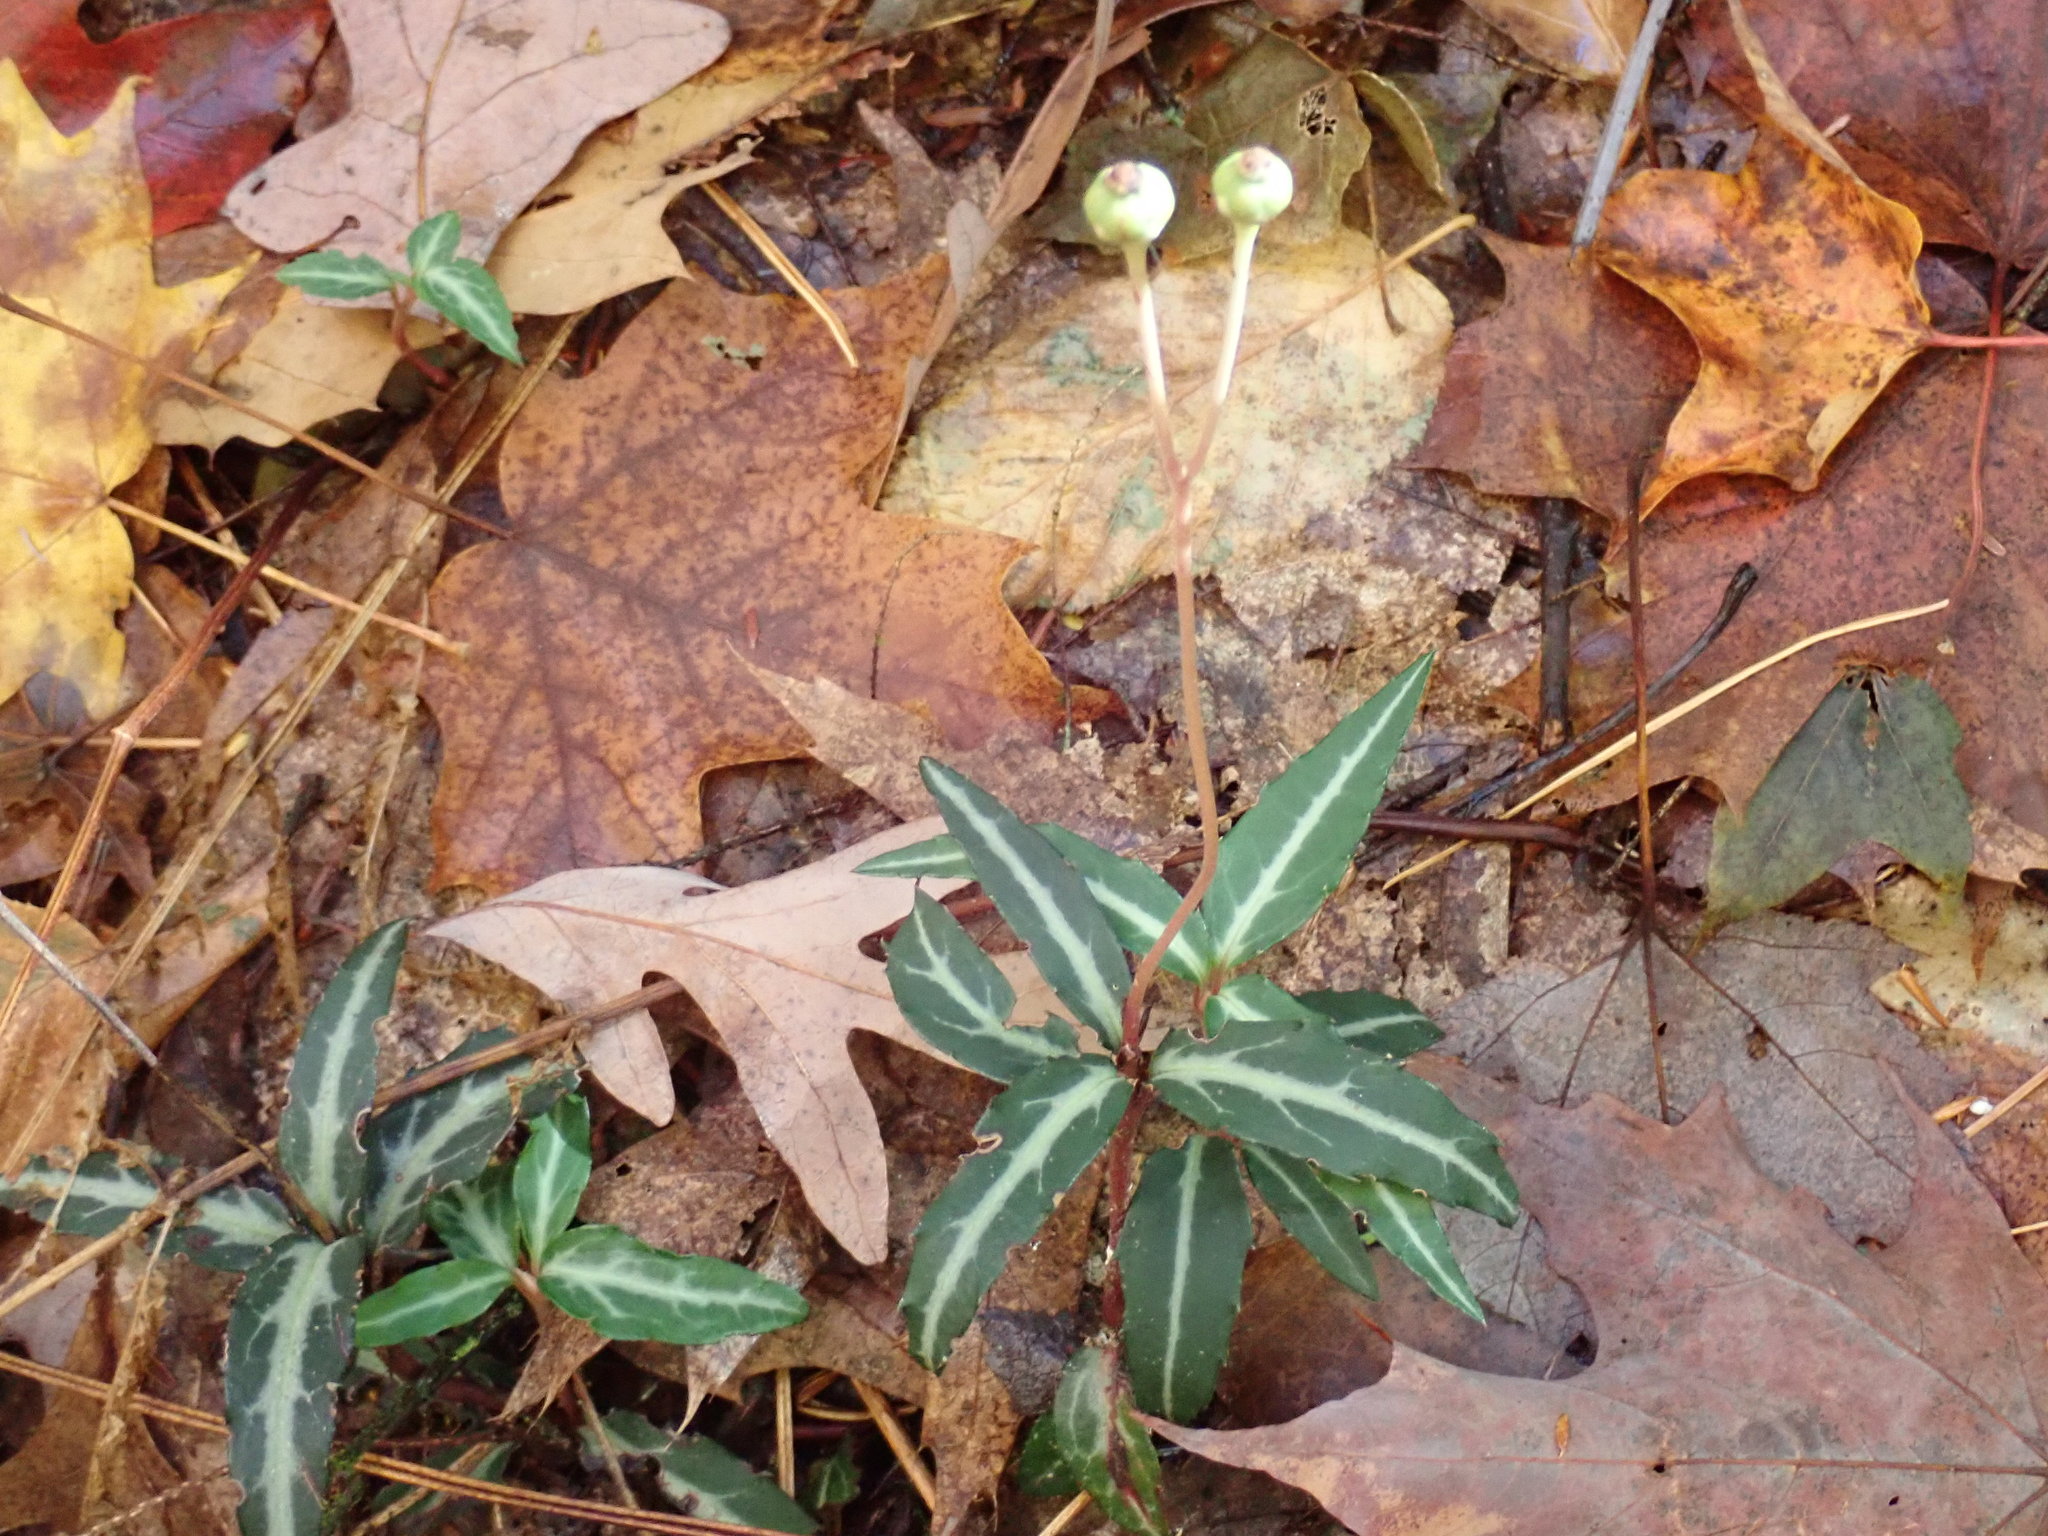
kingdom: Plantae
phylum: Tracheophyta
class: Magnoliopsida
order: Ericales
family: Ericaceae
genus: Chimaphila
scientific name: Chimaphila maculata
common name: Spotted pipsissewa
